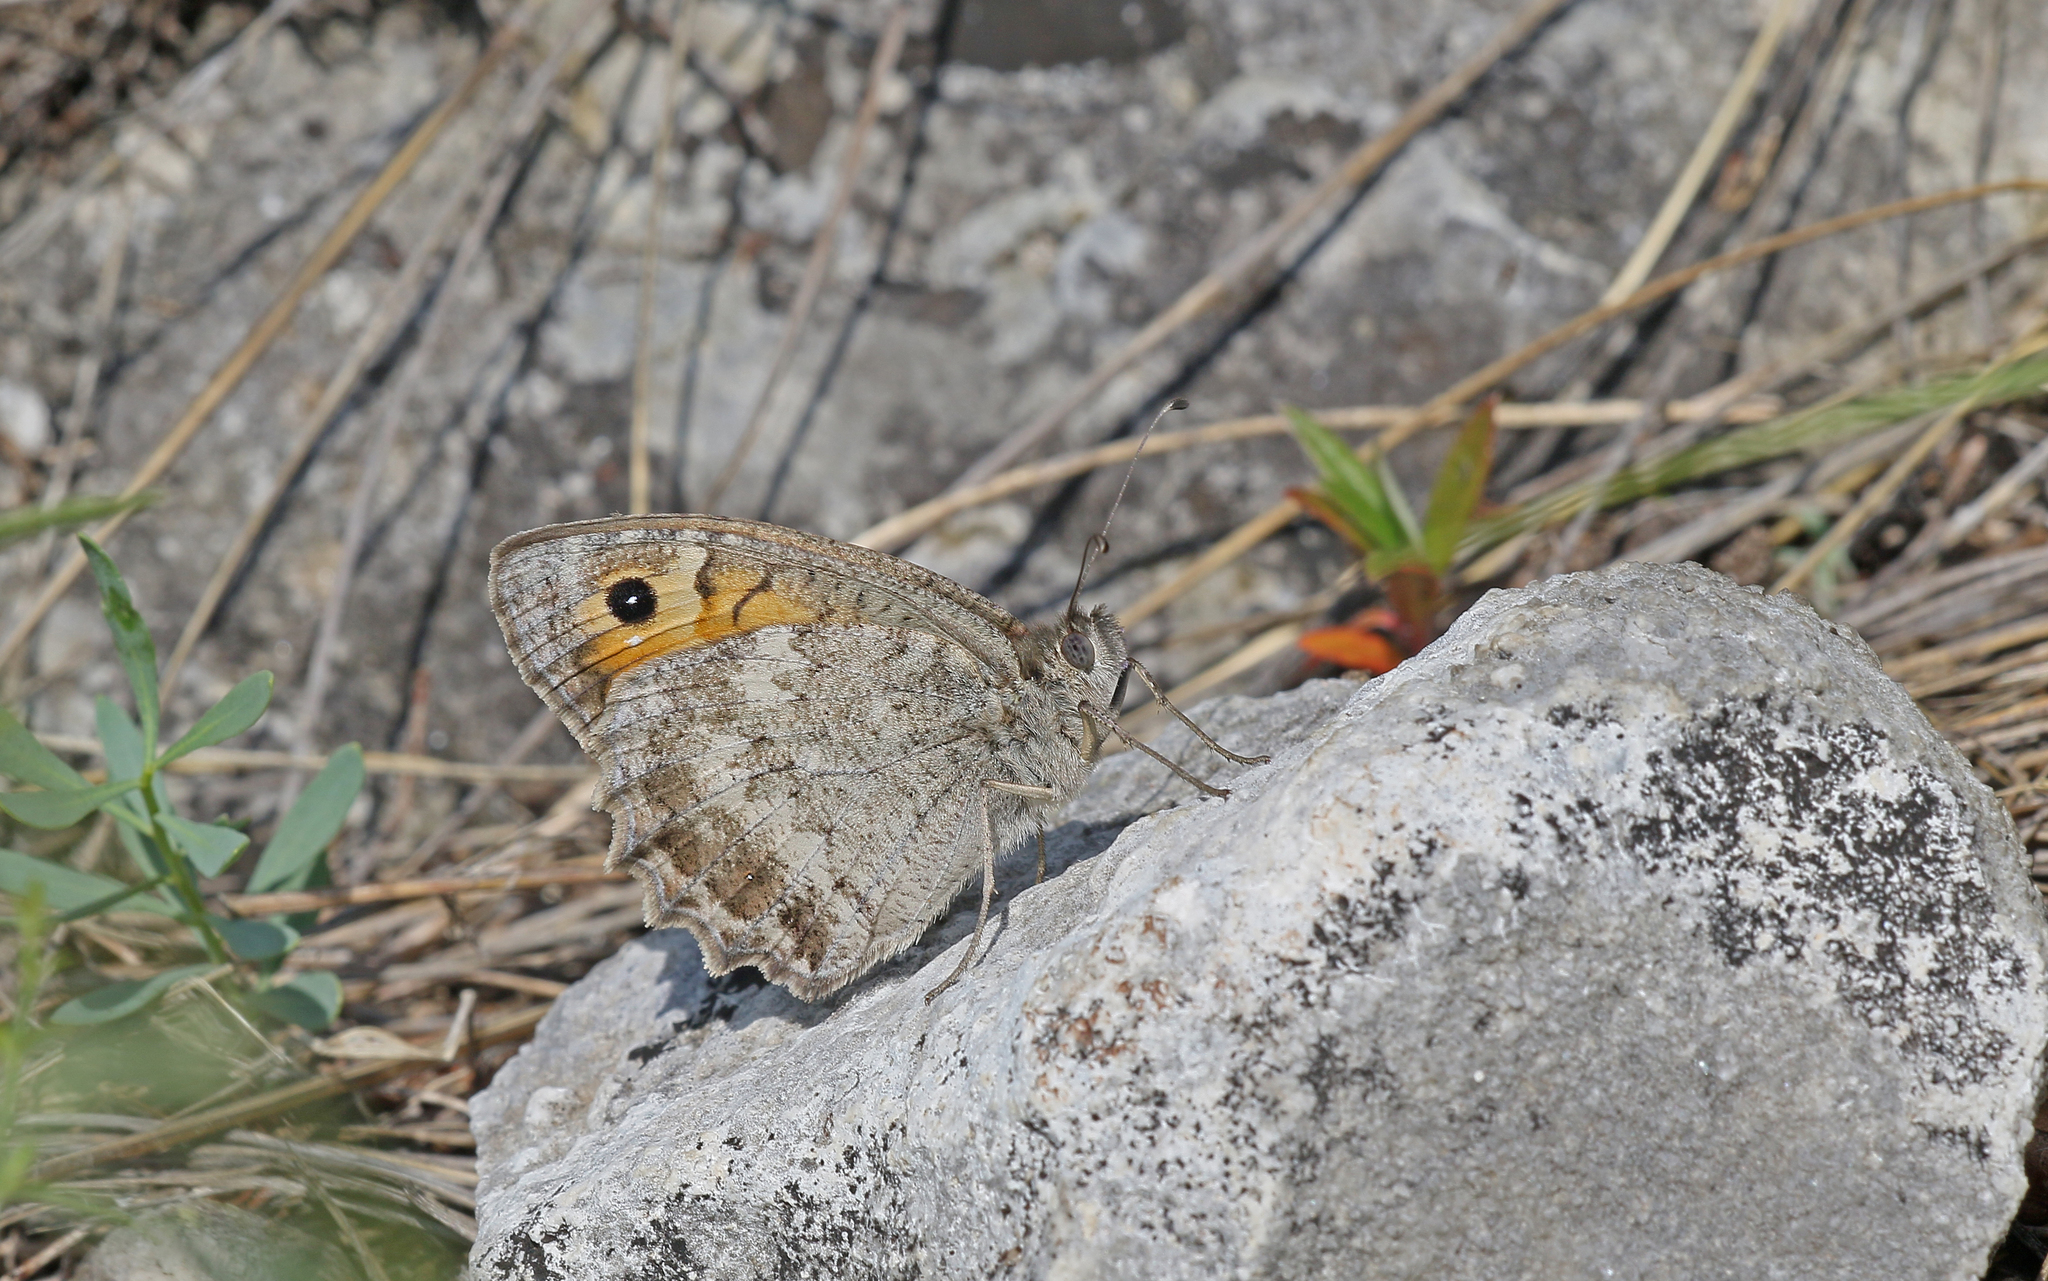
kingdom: Animalia
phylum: Arthropoda
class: Insecta
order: Lepidoptera
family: Nymphalidae
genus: Pseudochazara
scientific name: Pseudochazara orestes
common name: Dils’ grayling
